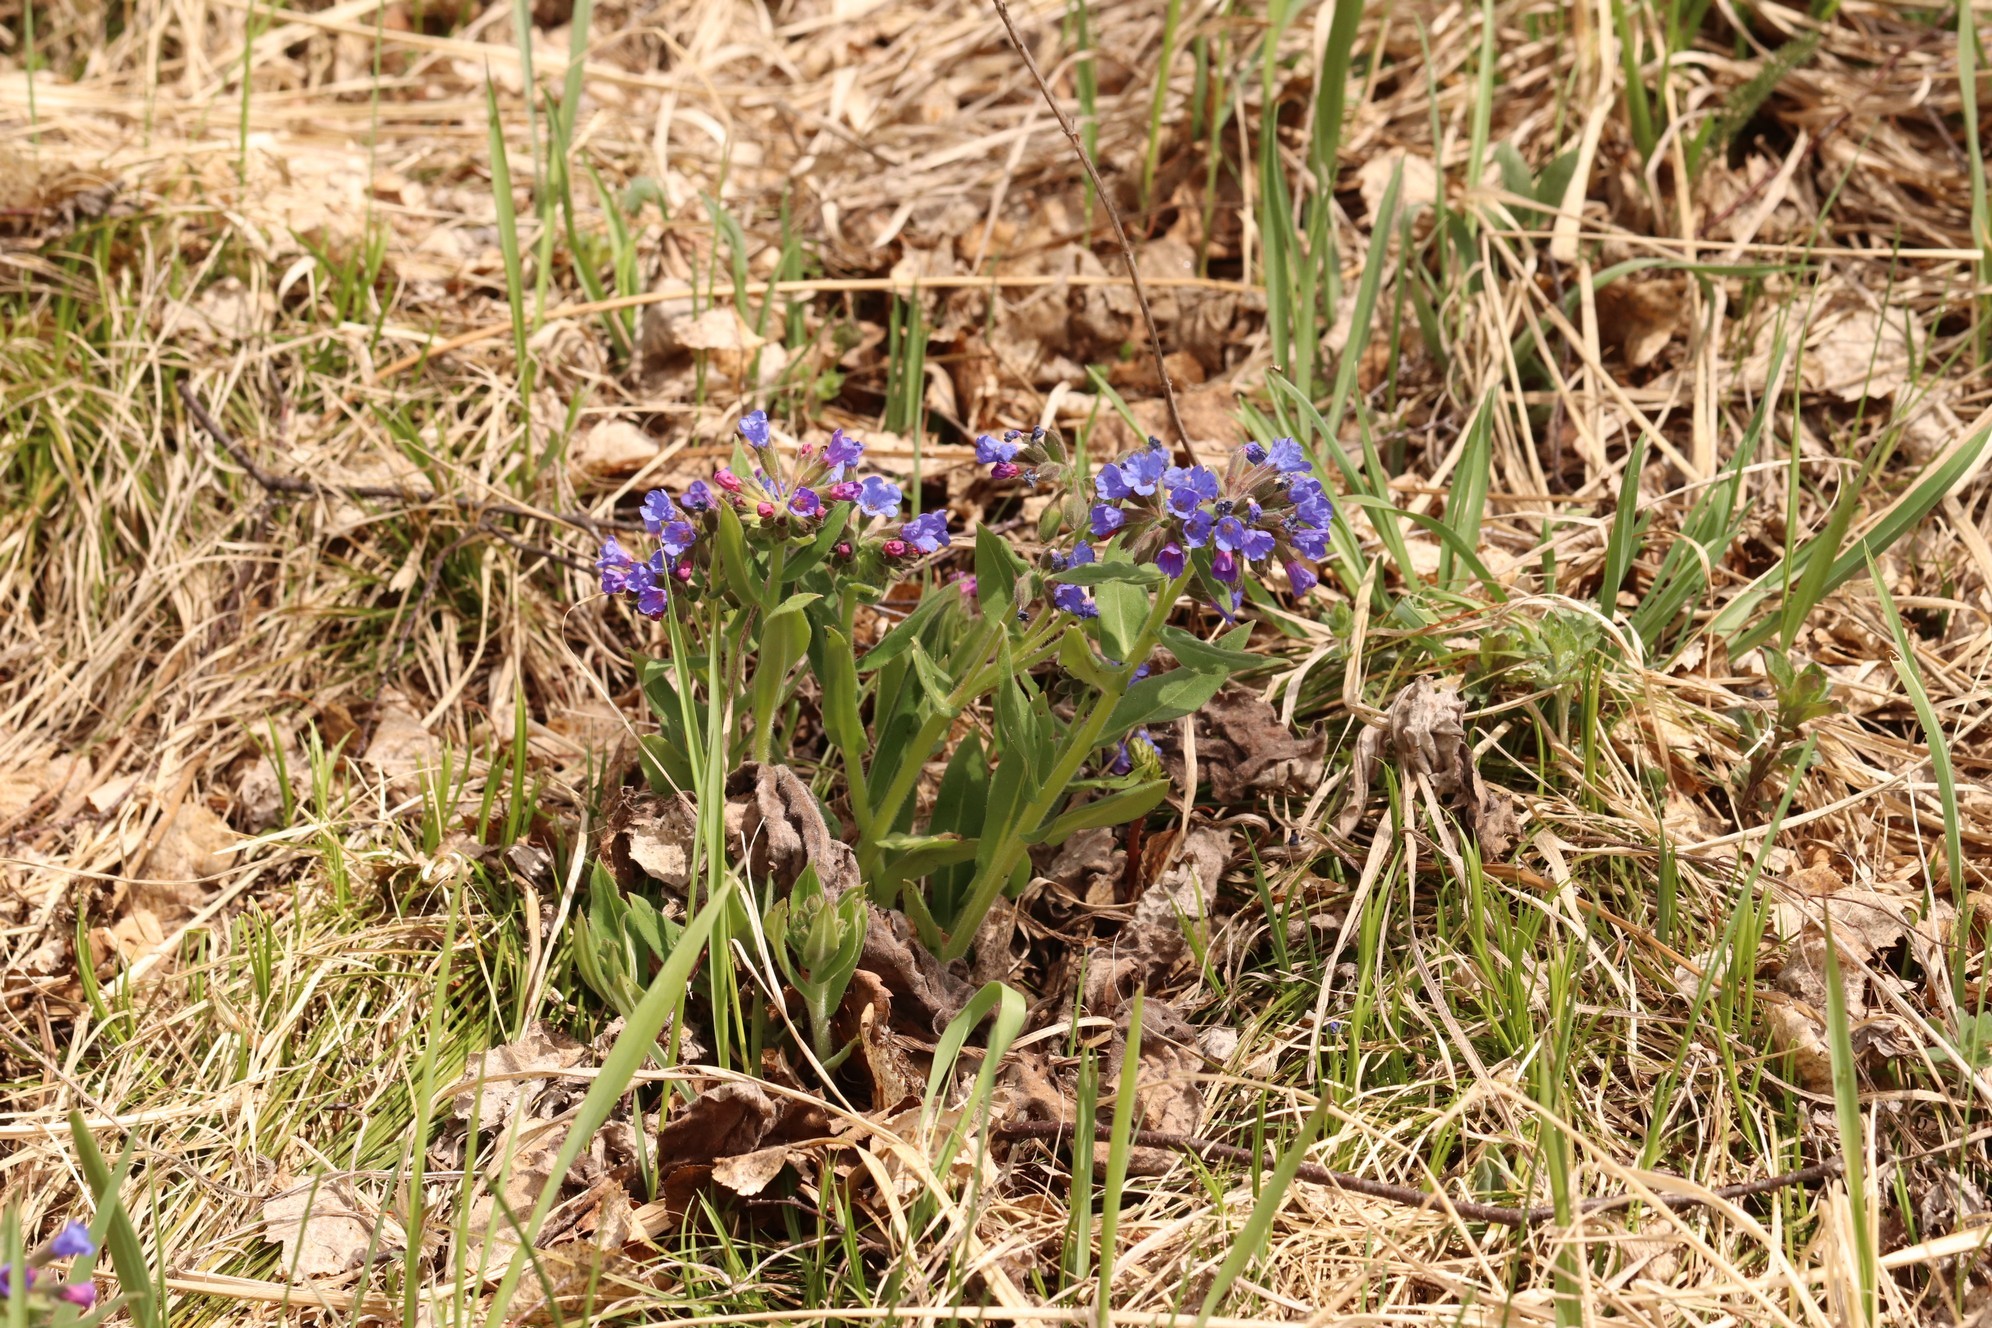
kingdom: Plantae
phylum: Tracheophyta
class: Magnoliopsida
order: Boraginales
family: Boraginaceae
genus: Pulmonaria
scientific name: Pulmonaria mollis
